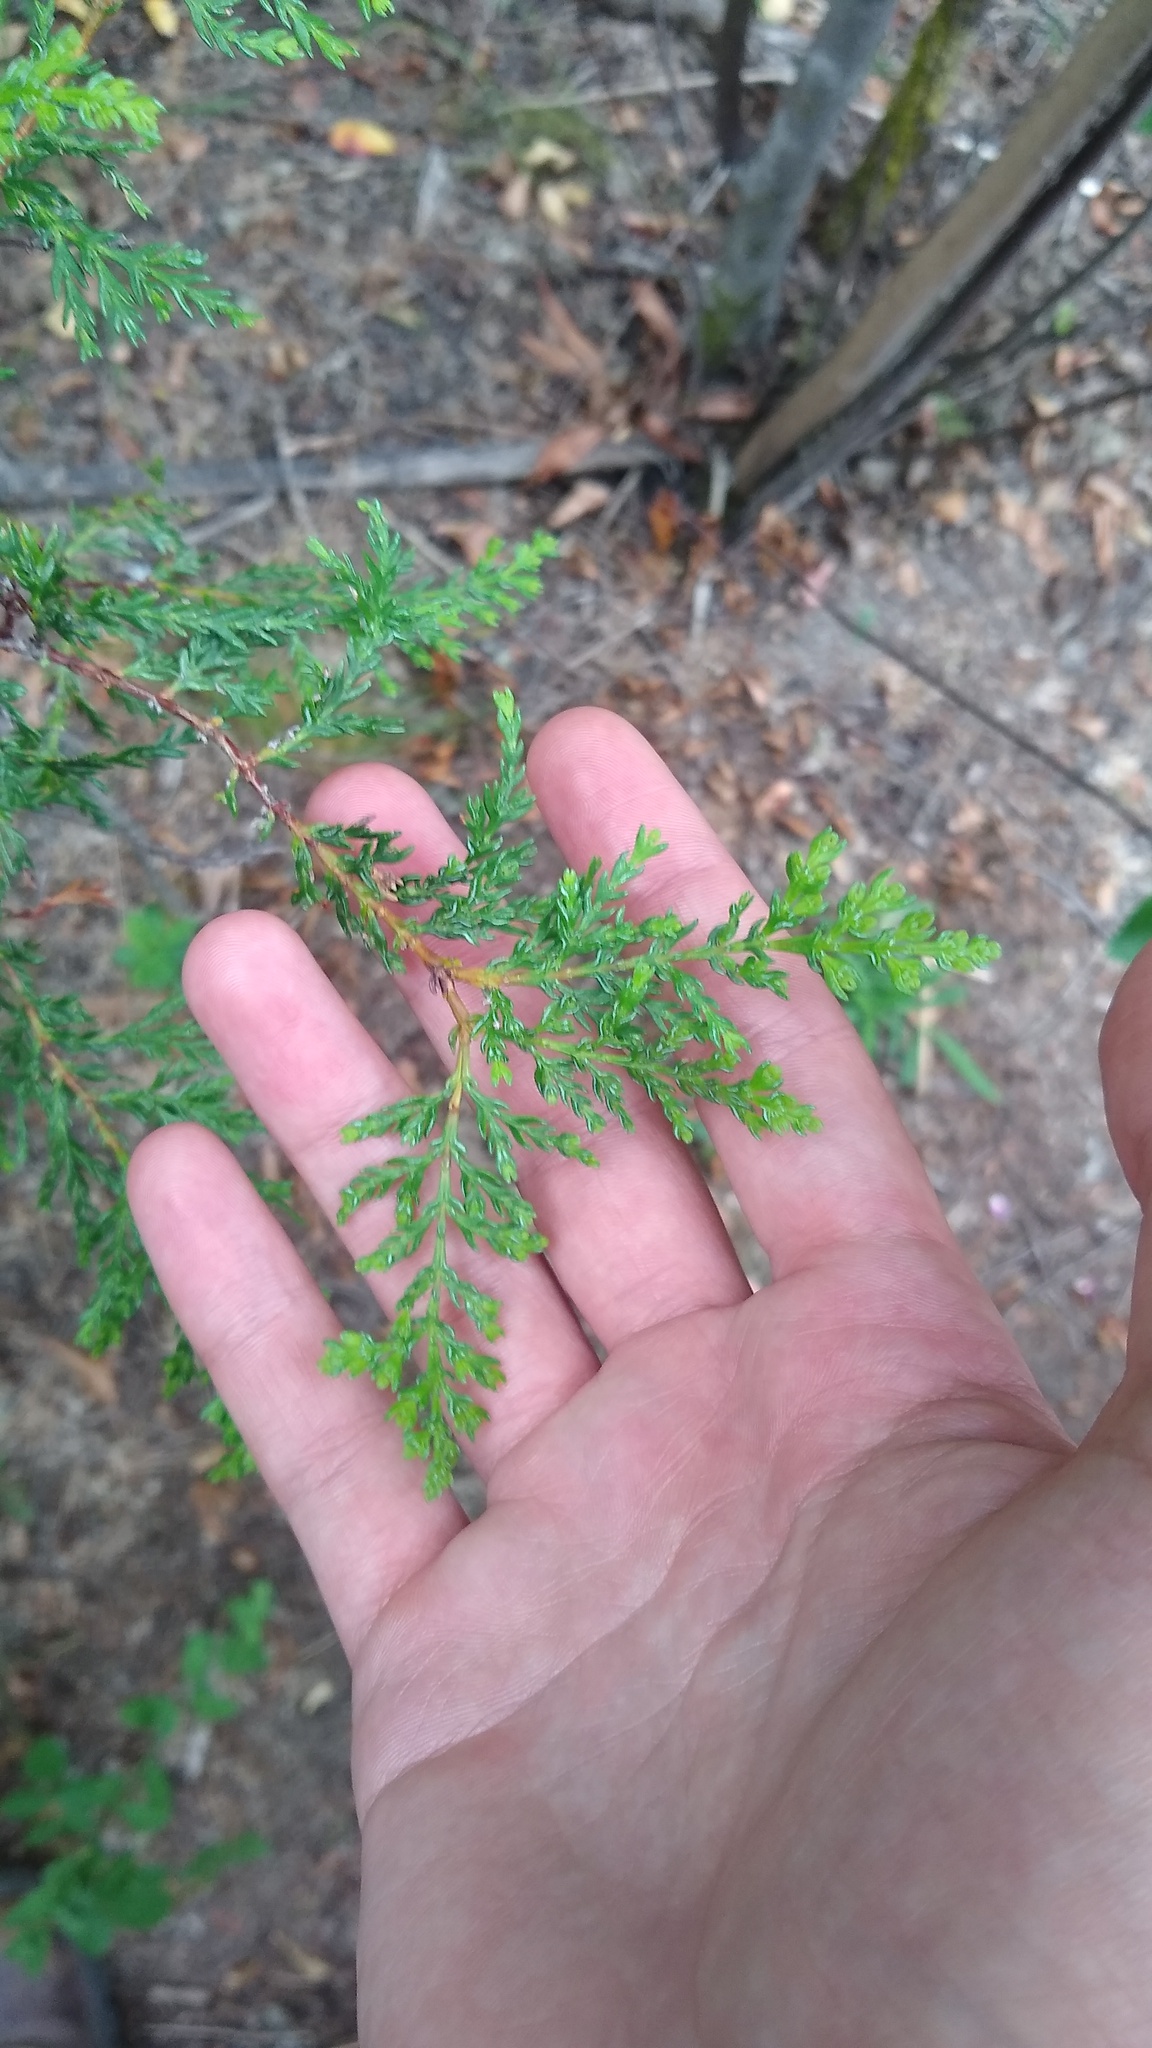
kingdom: Plantae
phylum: Tracheophyta
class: Pinopsida
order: Pinales
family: Cupressaceae
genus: Austrocedrus
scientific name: Austrocedrus chilensis
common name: Chilean incense-cedar
